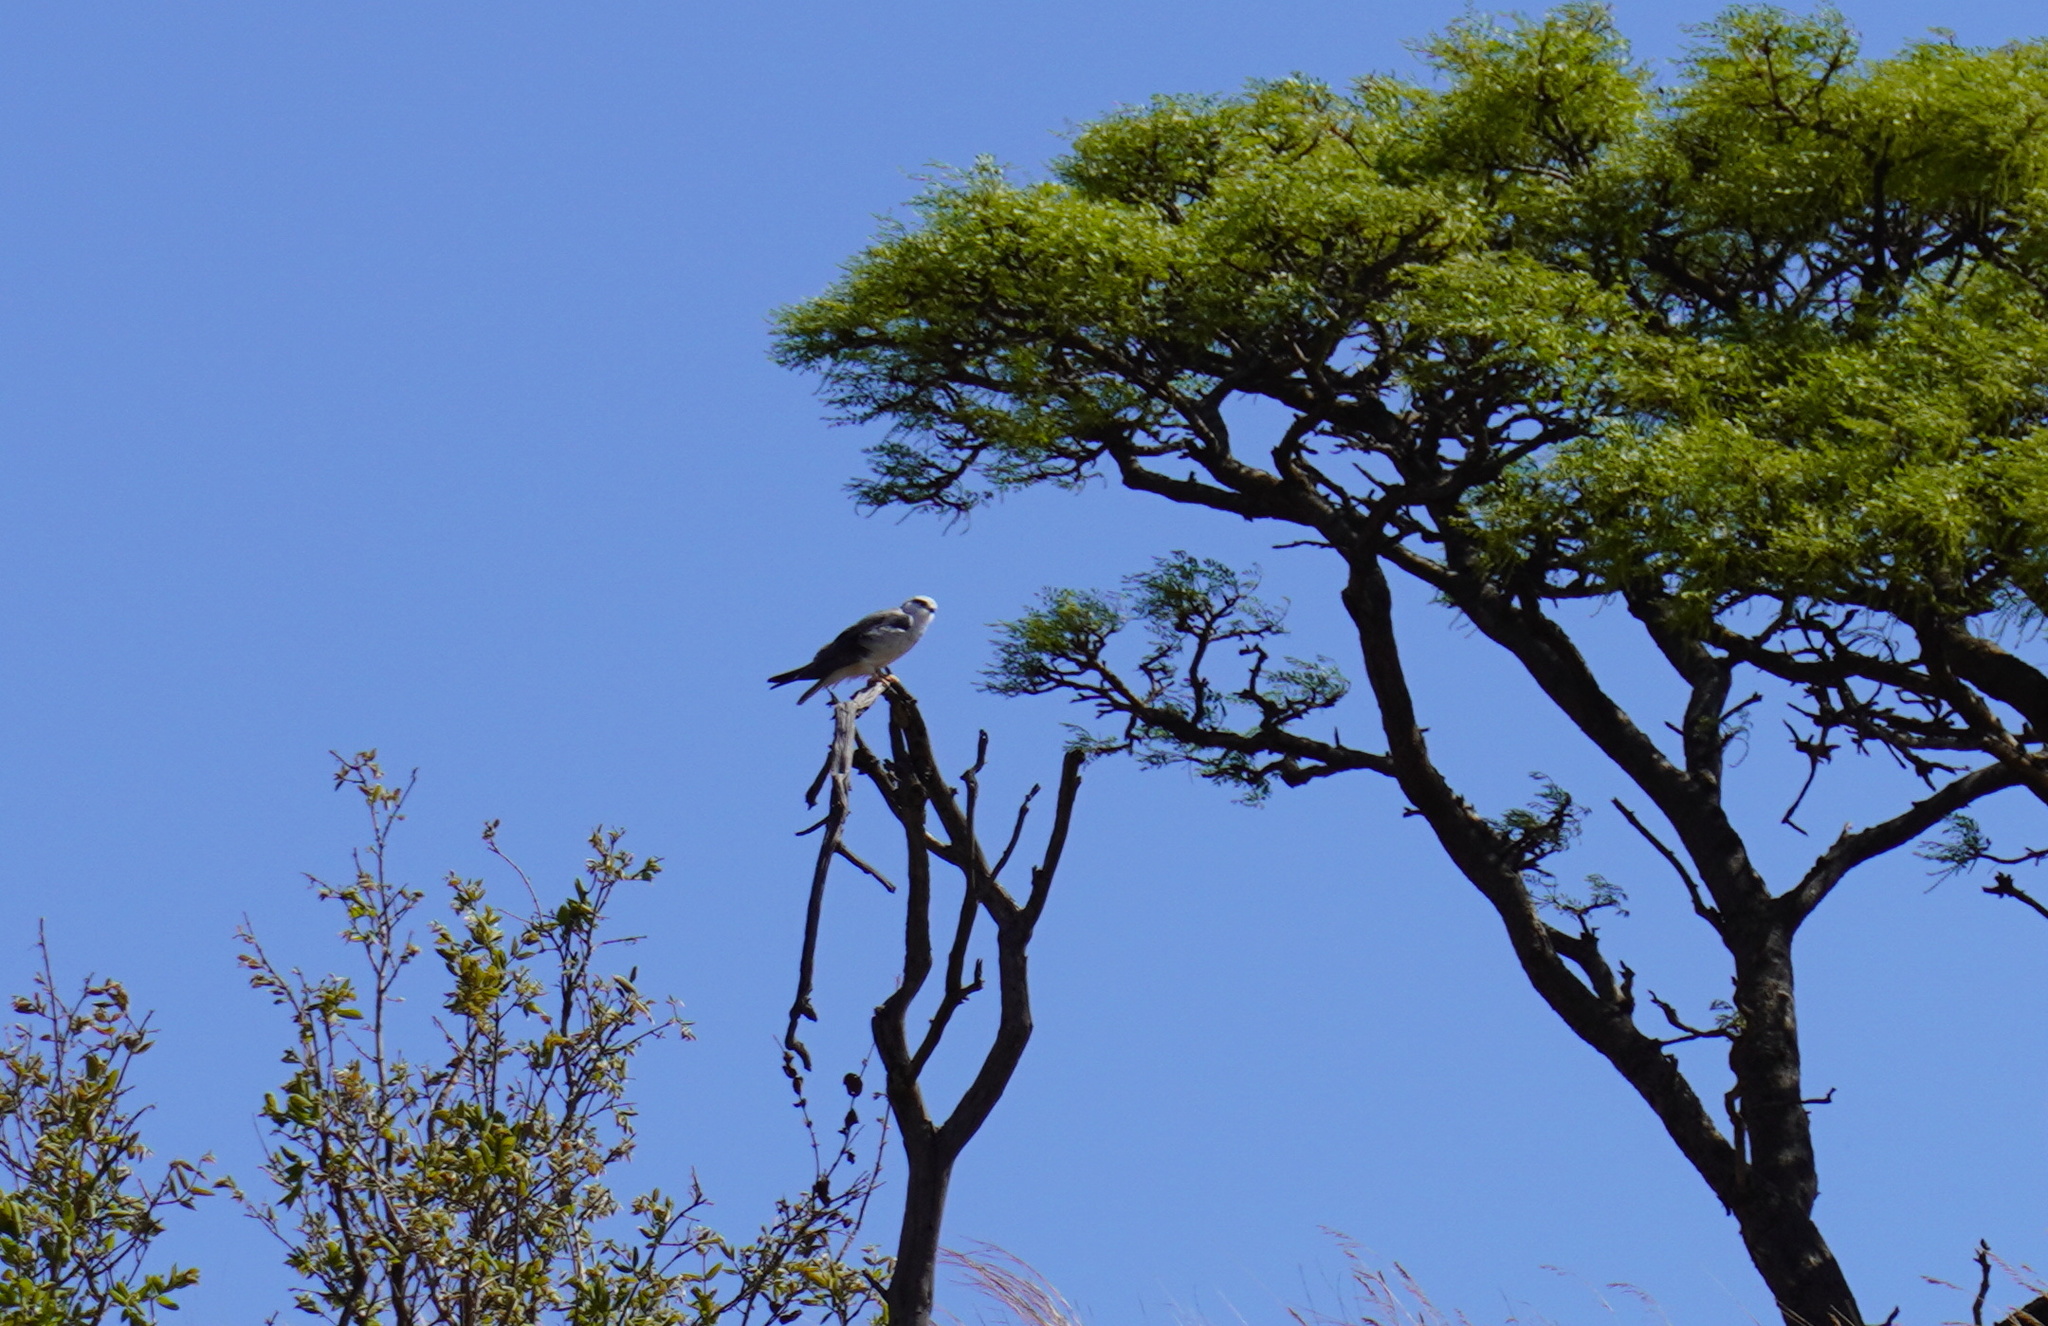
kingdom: Animalia
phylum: Chordata
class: Aves
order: Accipitriformes
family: Accipitridae
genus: Elanus
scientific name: Elanus caeruleus
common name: Black-winged kite
